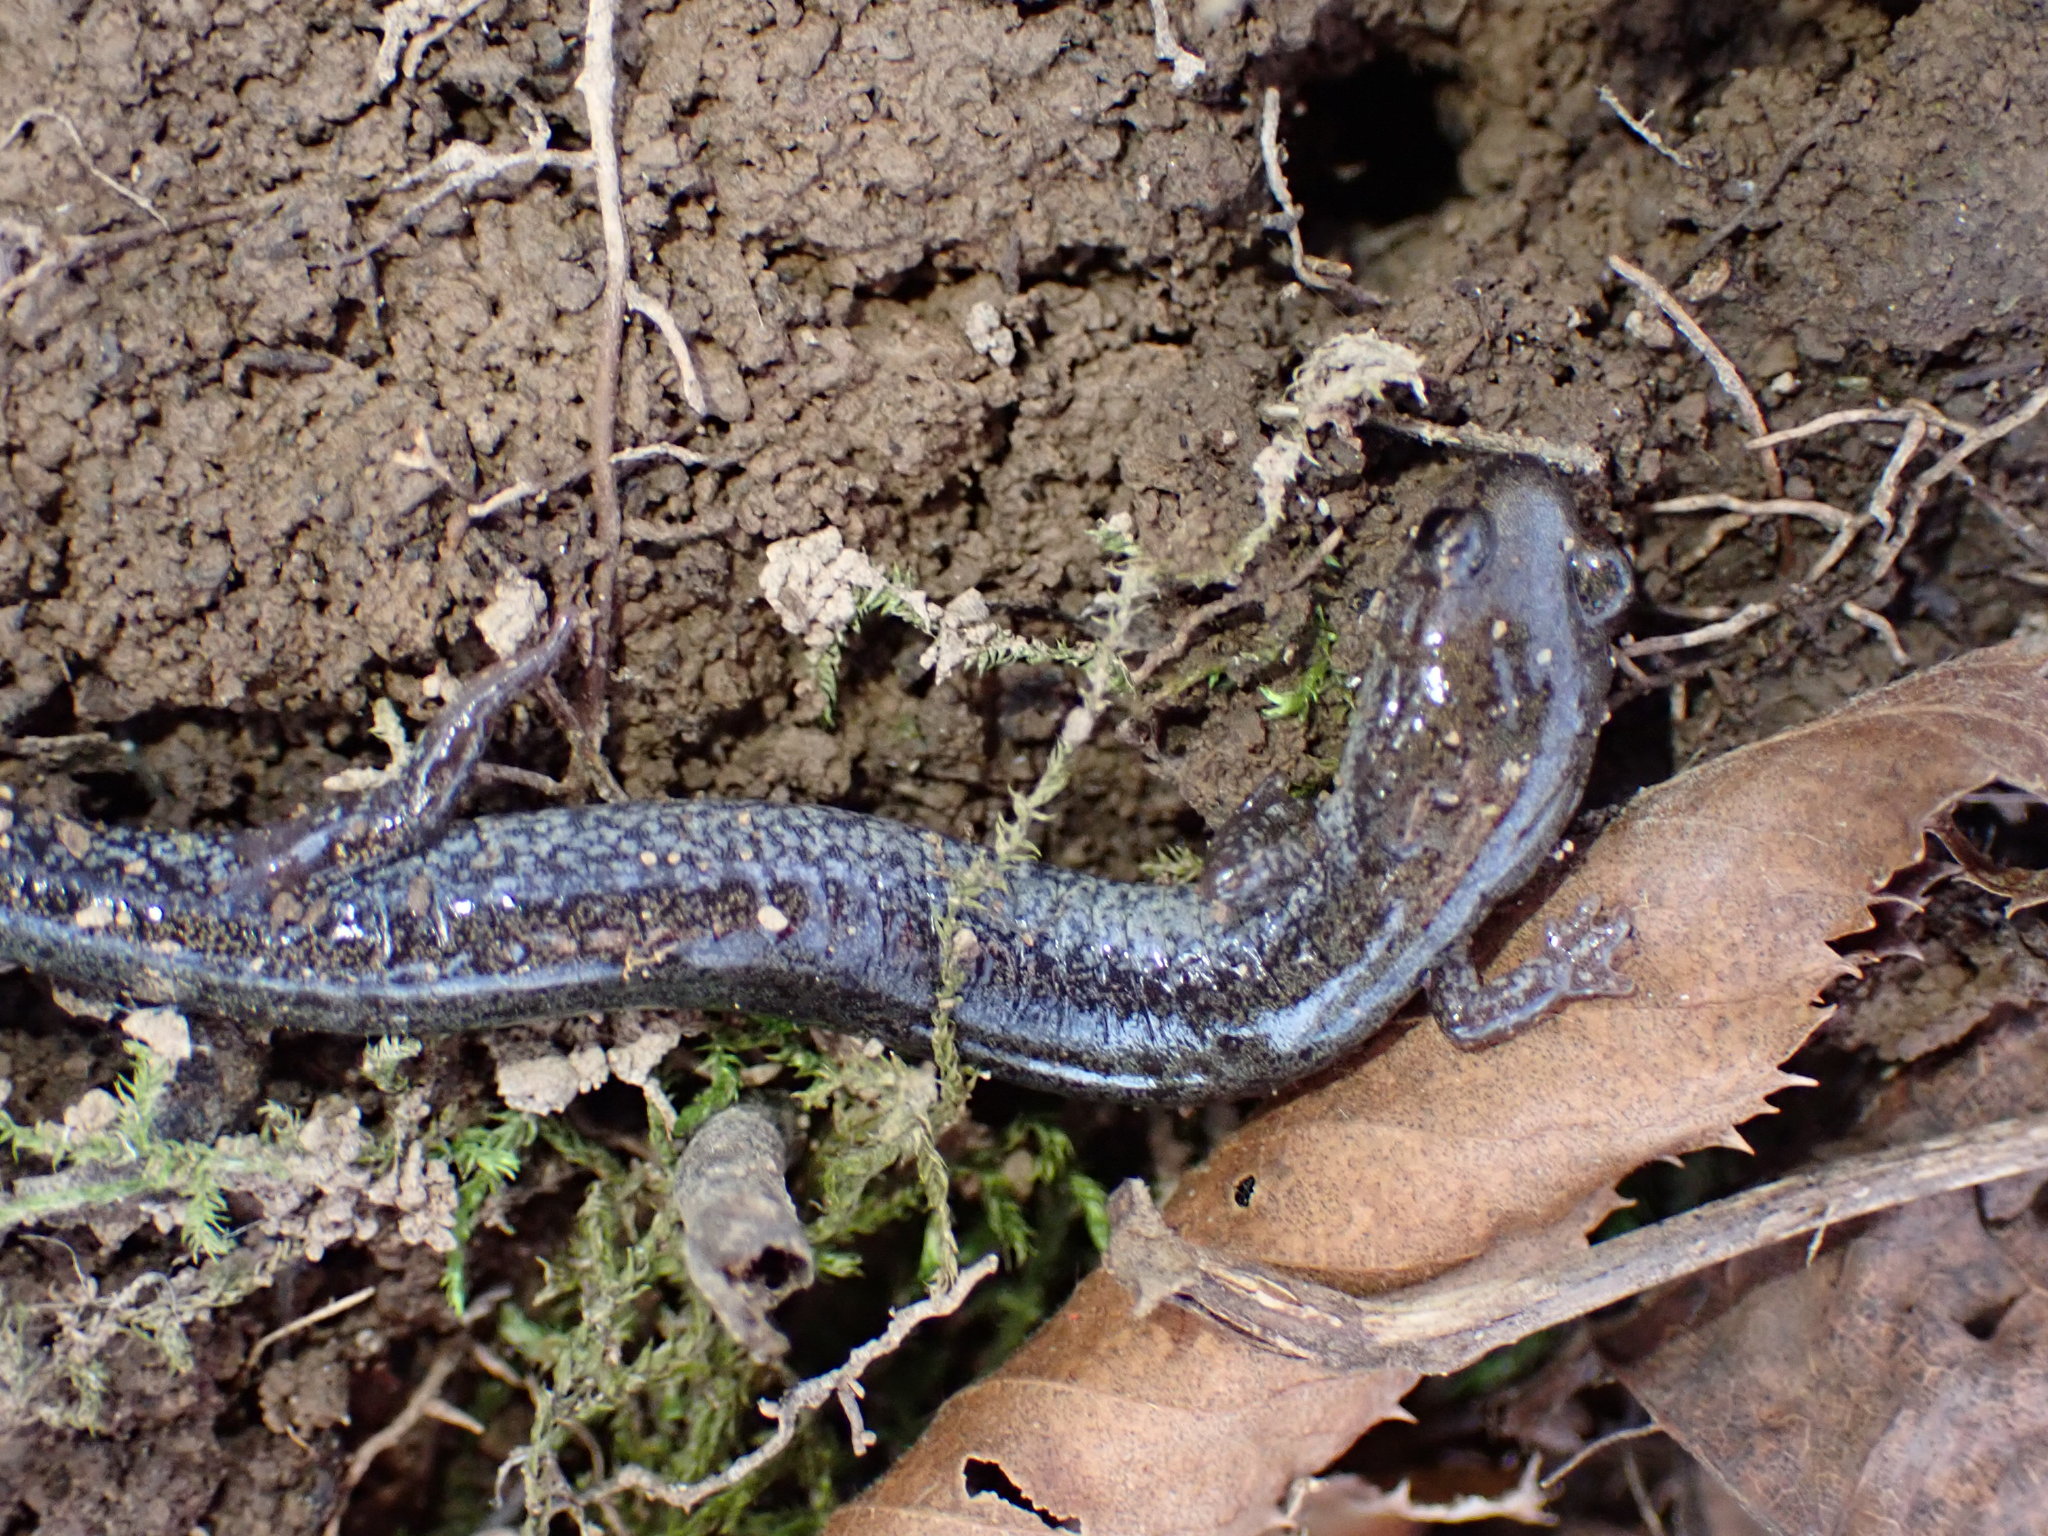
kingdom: Animalia
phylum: Chordata
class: Amphibia
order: Caudata
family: Plethodontidae
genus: Plethodon
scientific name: Plethodon hoffmani
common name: Valley and ridge salamander
